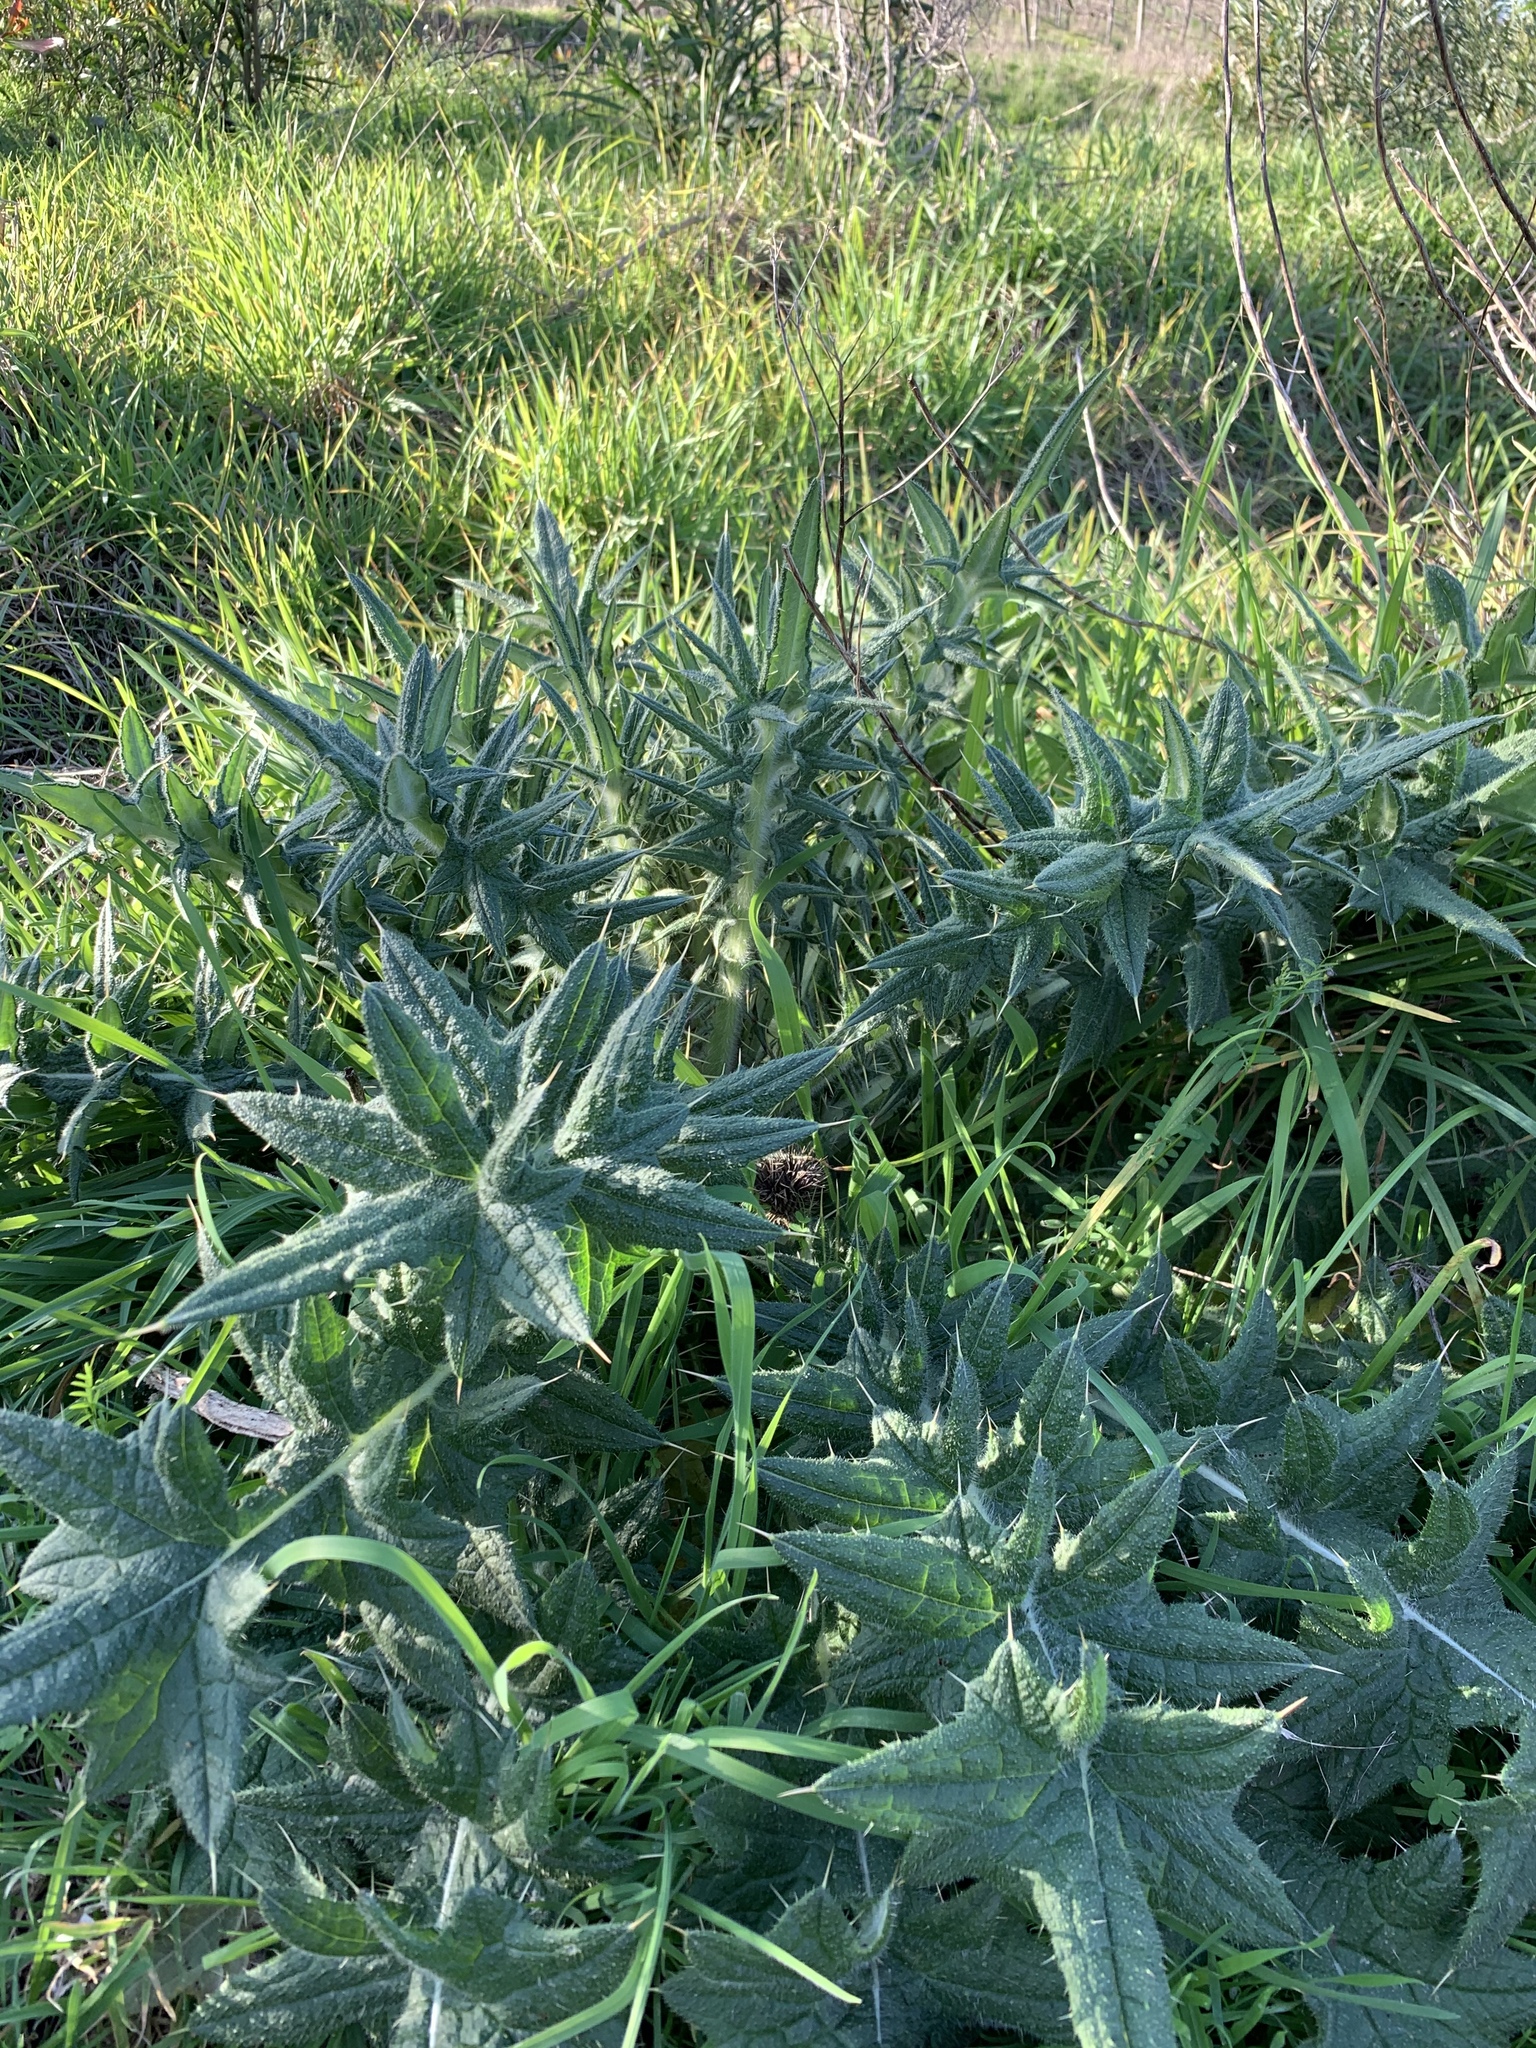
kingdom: Plantae
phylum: Tracheophyta
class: Magnoliopsida
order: Asterales
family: Asteraceae
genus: Cirsium
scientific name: Cirsium vulgare
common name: Bull thistle
